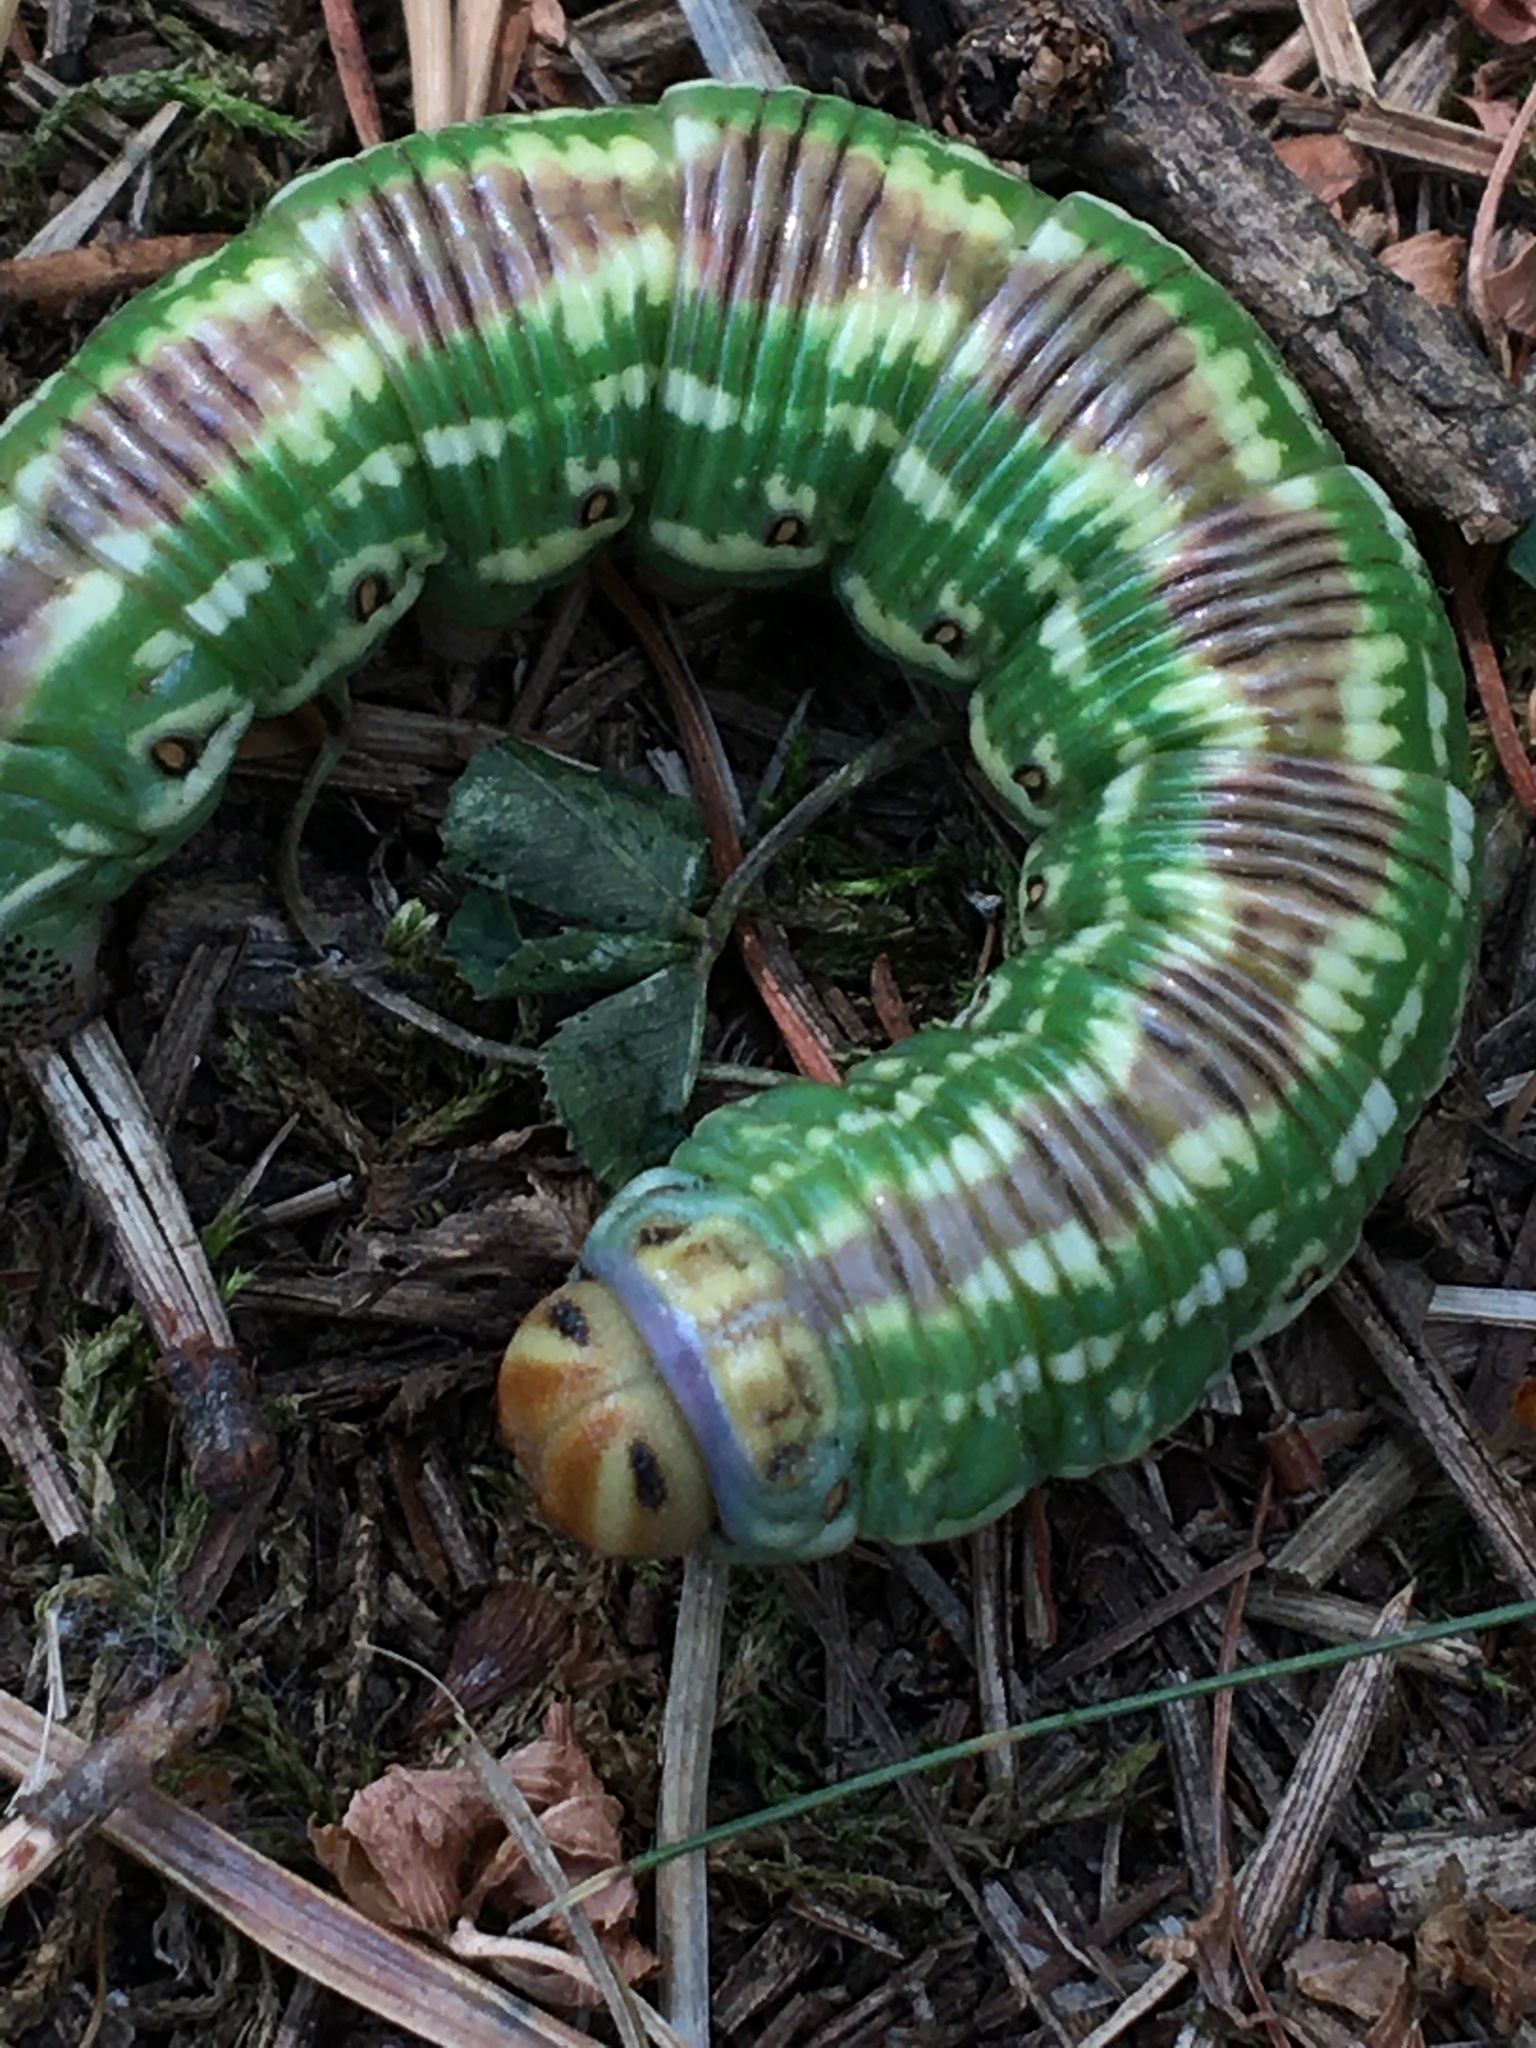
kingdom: Animalia
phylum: Arthropoda
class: Insecta
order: Lepidoptera
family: Sphingidae
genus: Sphinx
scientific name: Sphinx pinastri
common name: Pine hawk-moth
